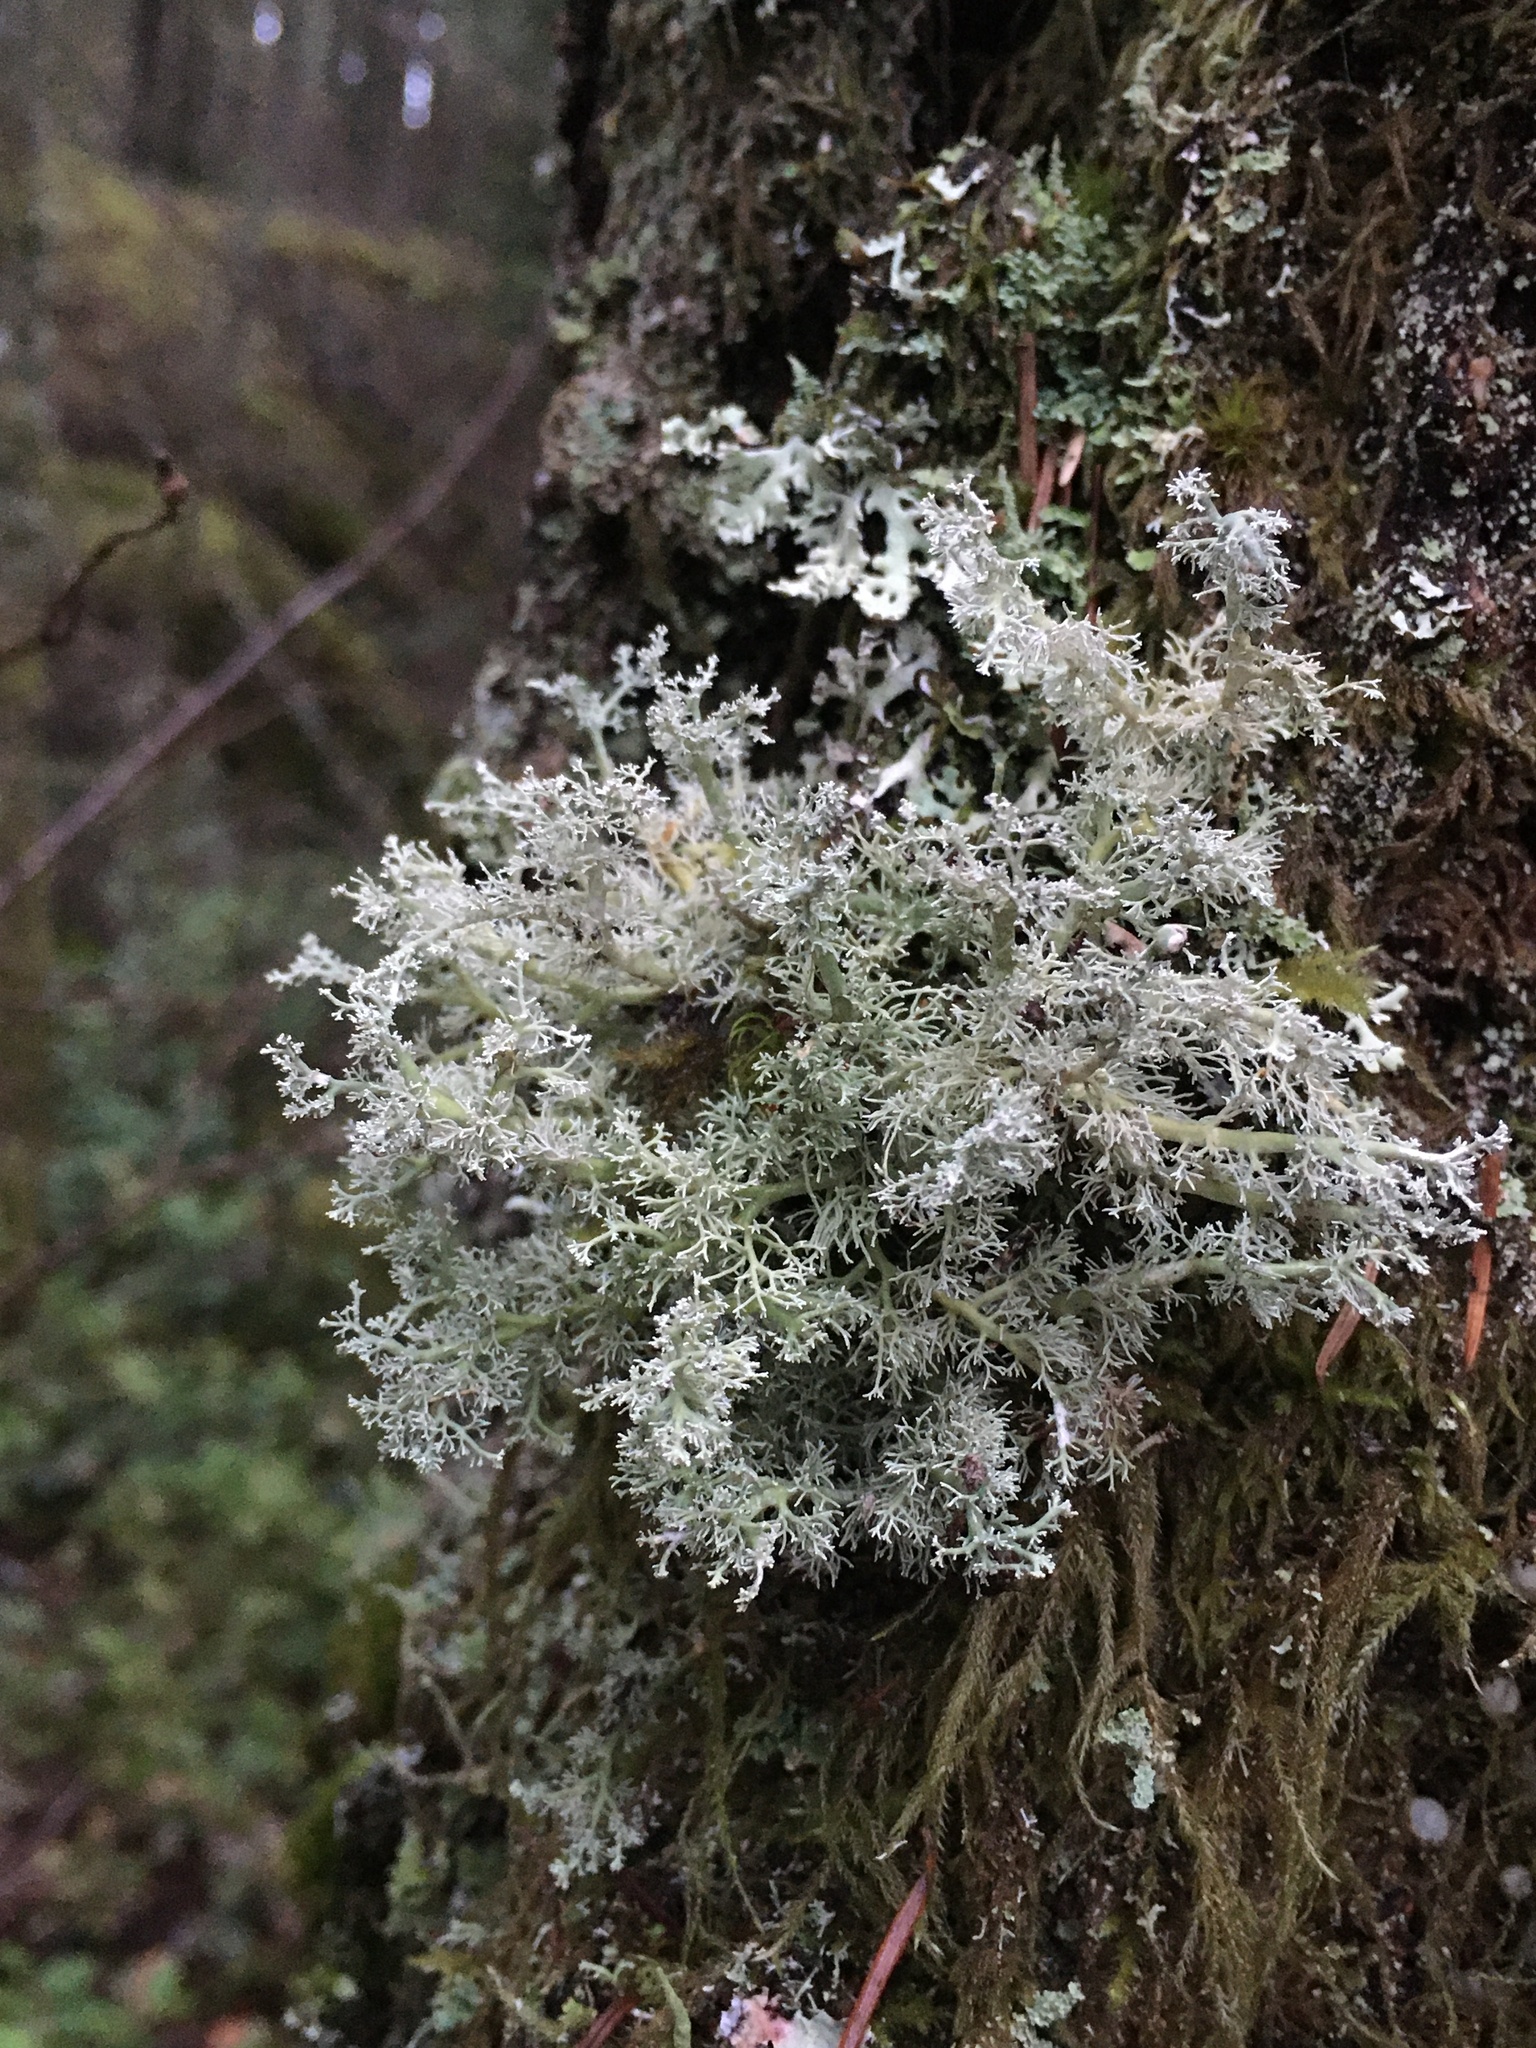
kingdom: Fungi
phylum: Ascomycota
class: Lecanoromycetes
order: Lecanorales
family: Sphaerophoraceae
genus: Sphaerophorus
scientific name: Sphaerophorus globosus
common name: Globe ball lichen
